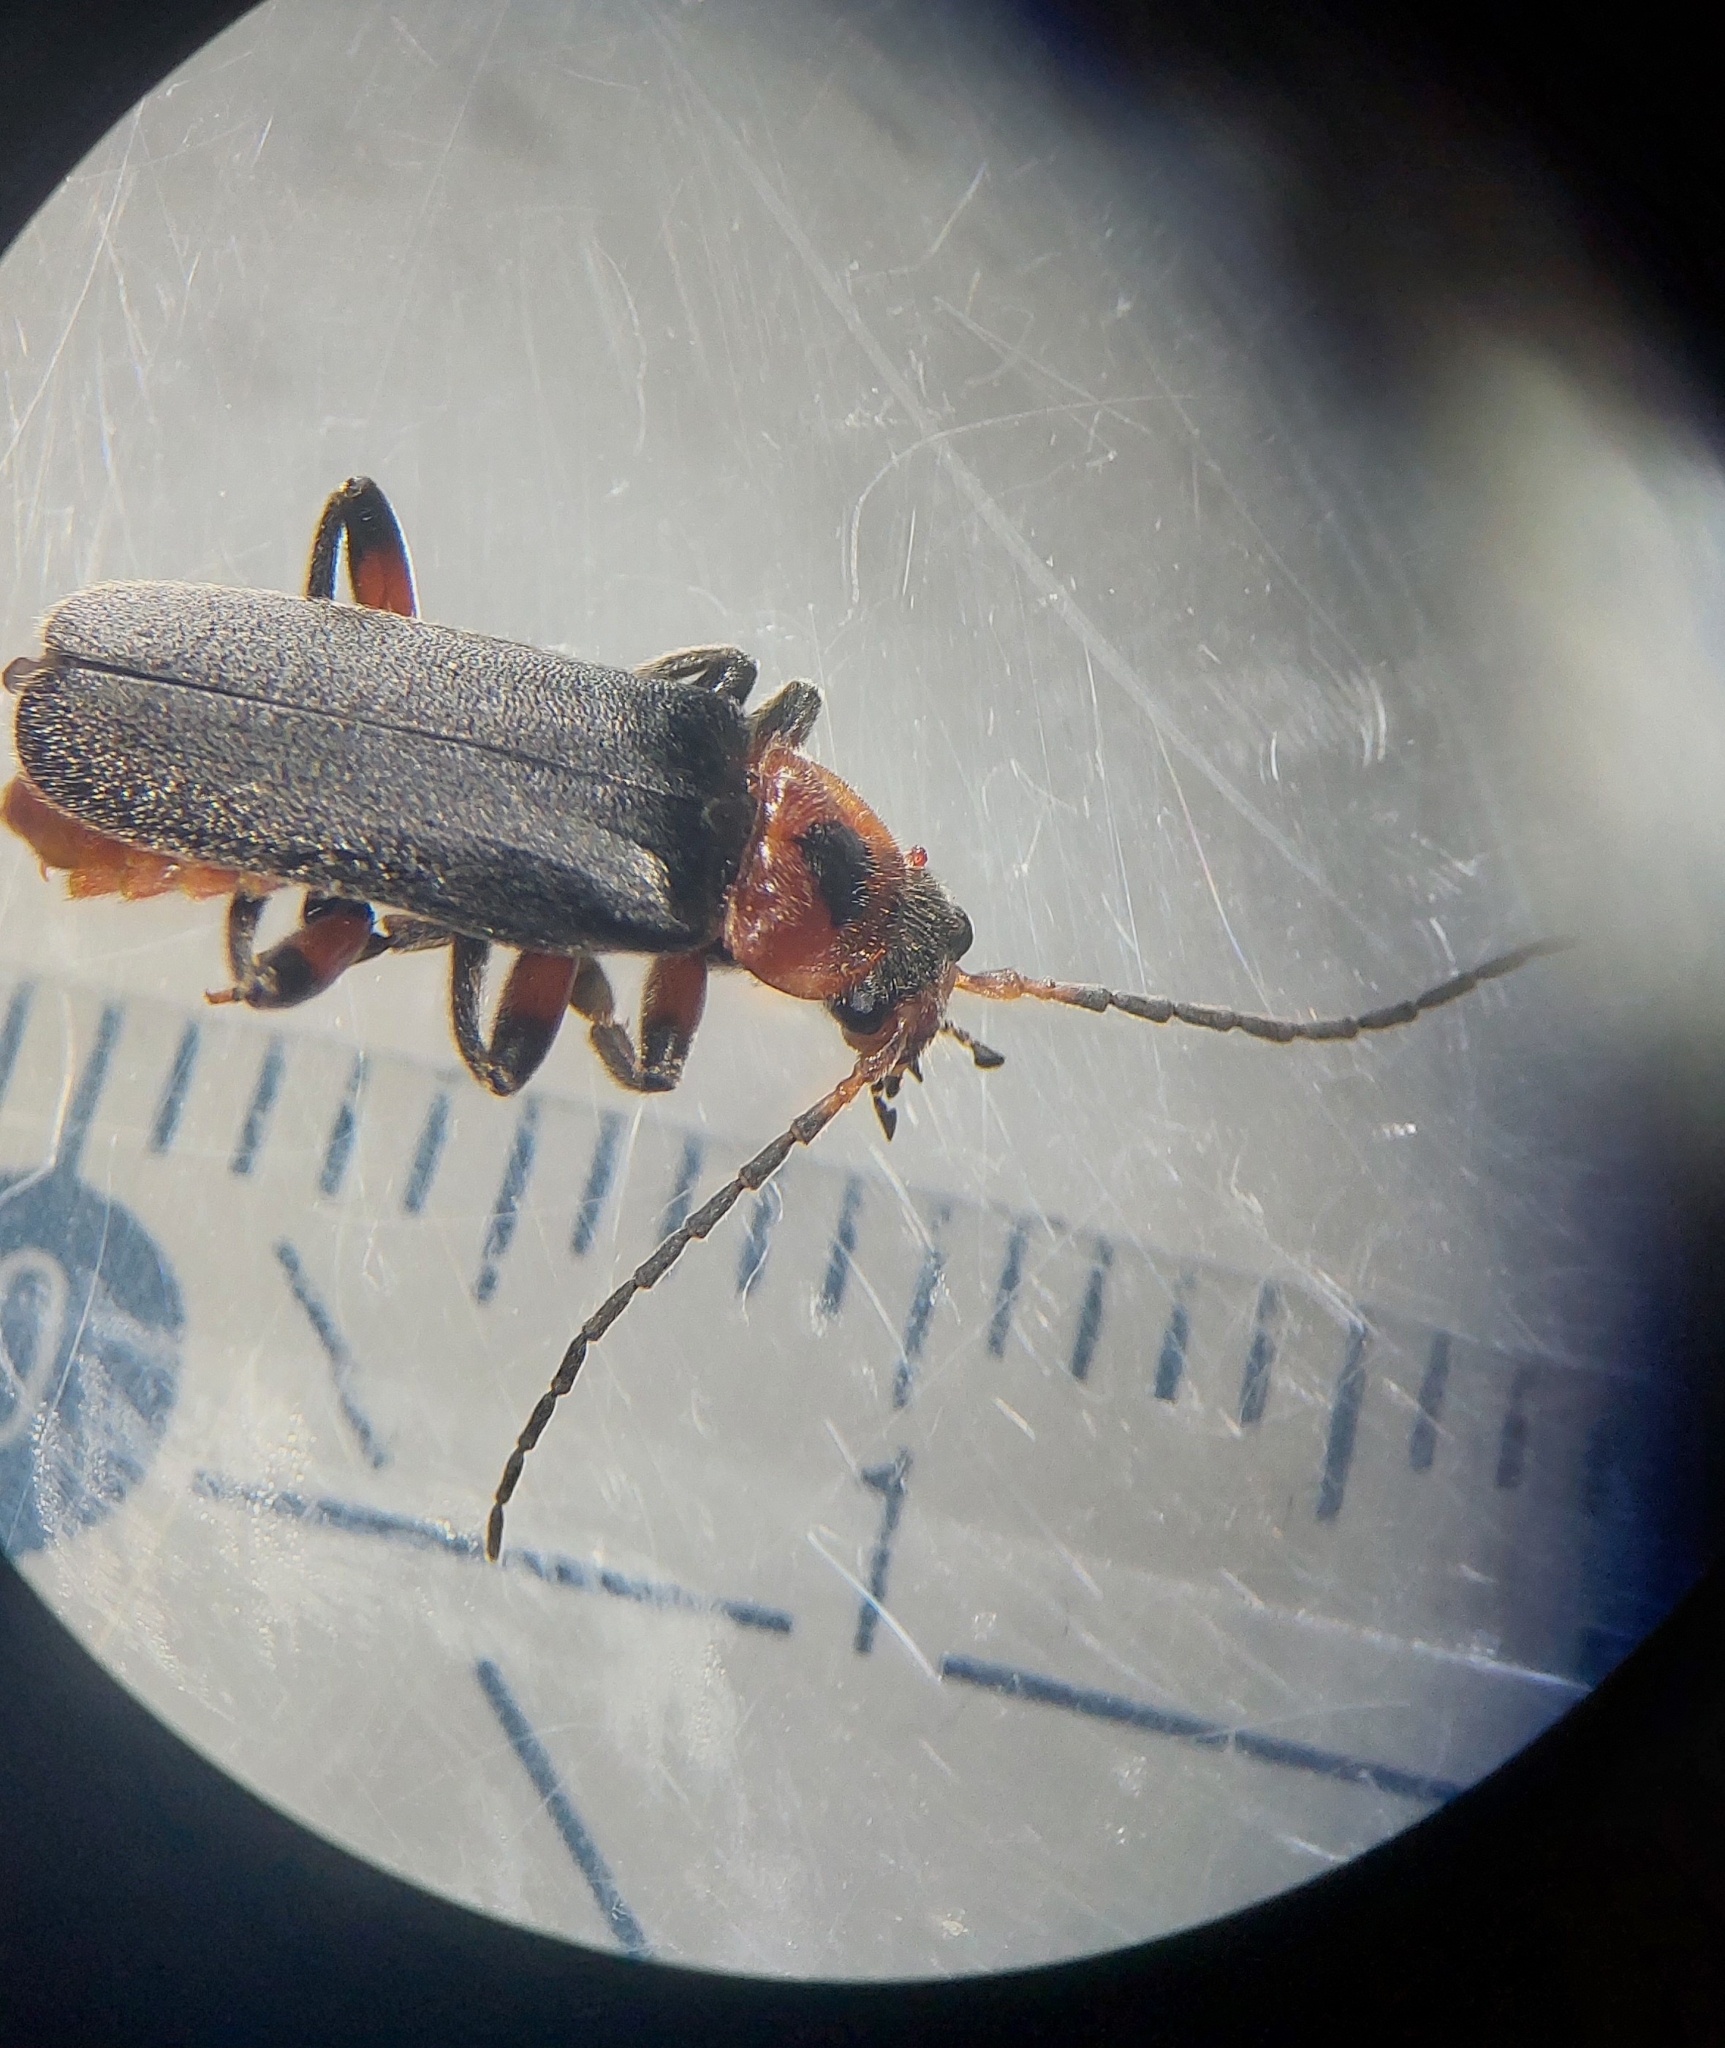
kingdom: Animalia
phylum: Arthropoda
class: Insecta
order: Coleoptera
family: Cantharidae
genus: Cantharis
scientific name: Cantharis rustica
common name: Soldier beetle
